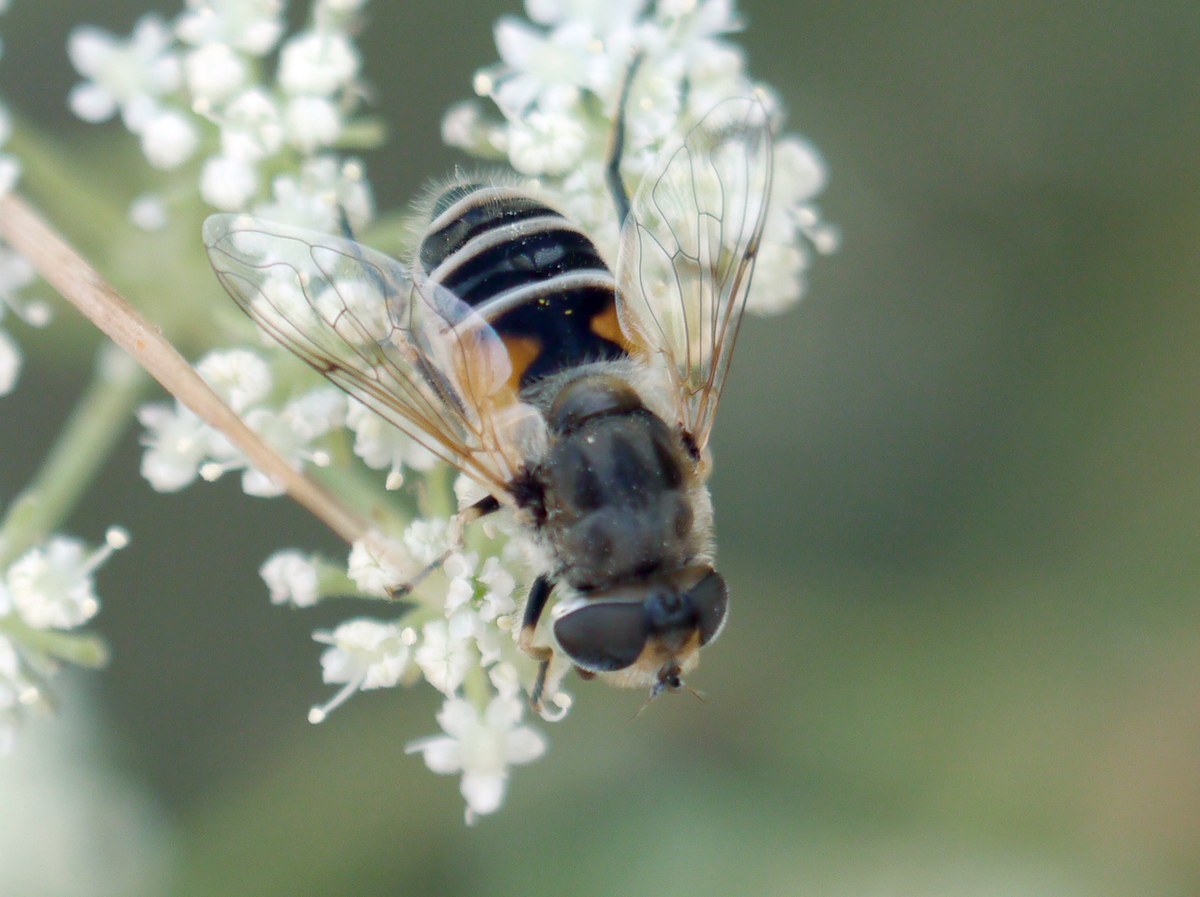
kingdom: Animalia
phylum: Arthropoda
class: Insecta
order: Diptera
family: Syrphidae
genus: Eristalis
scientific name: Eristalis arbustorum
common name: Hover fly
